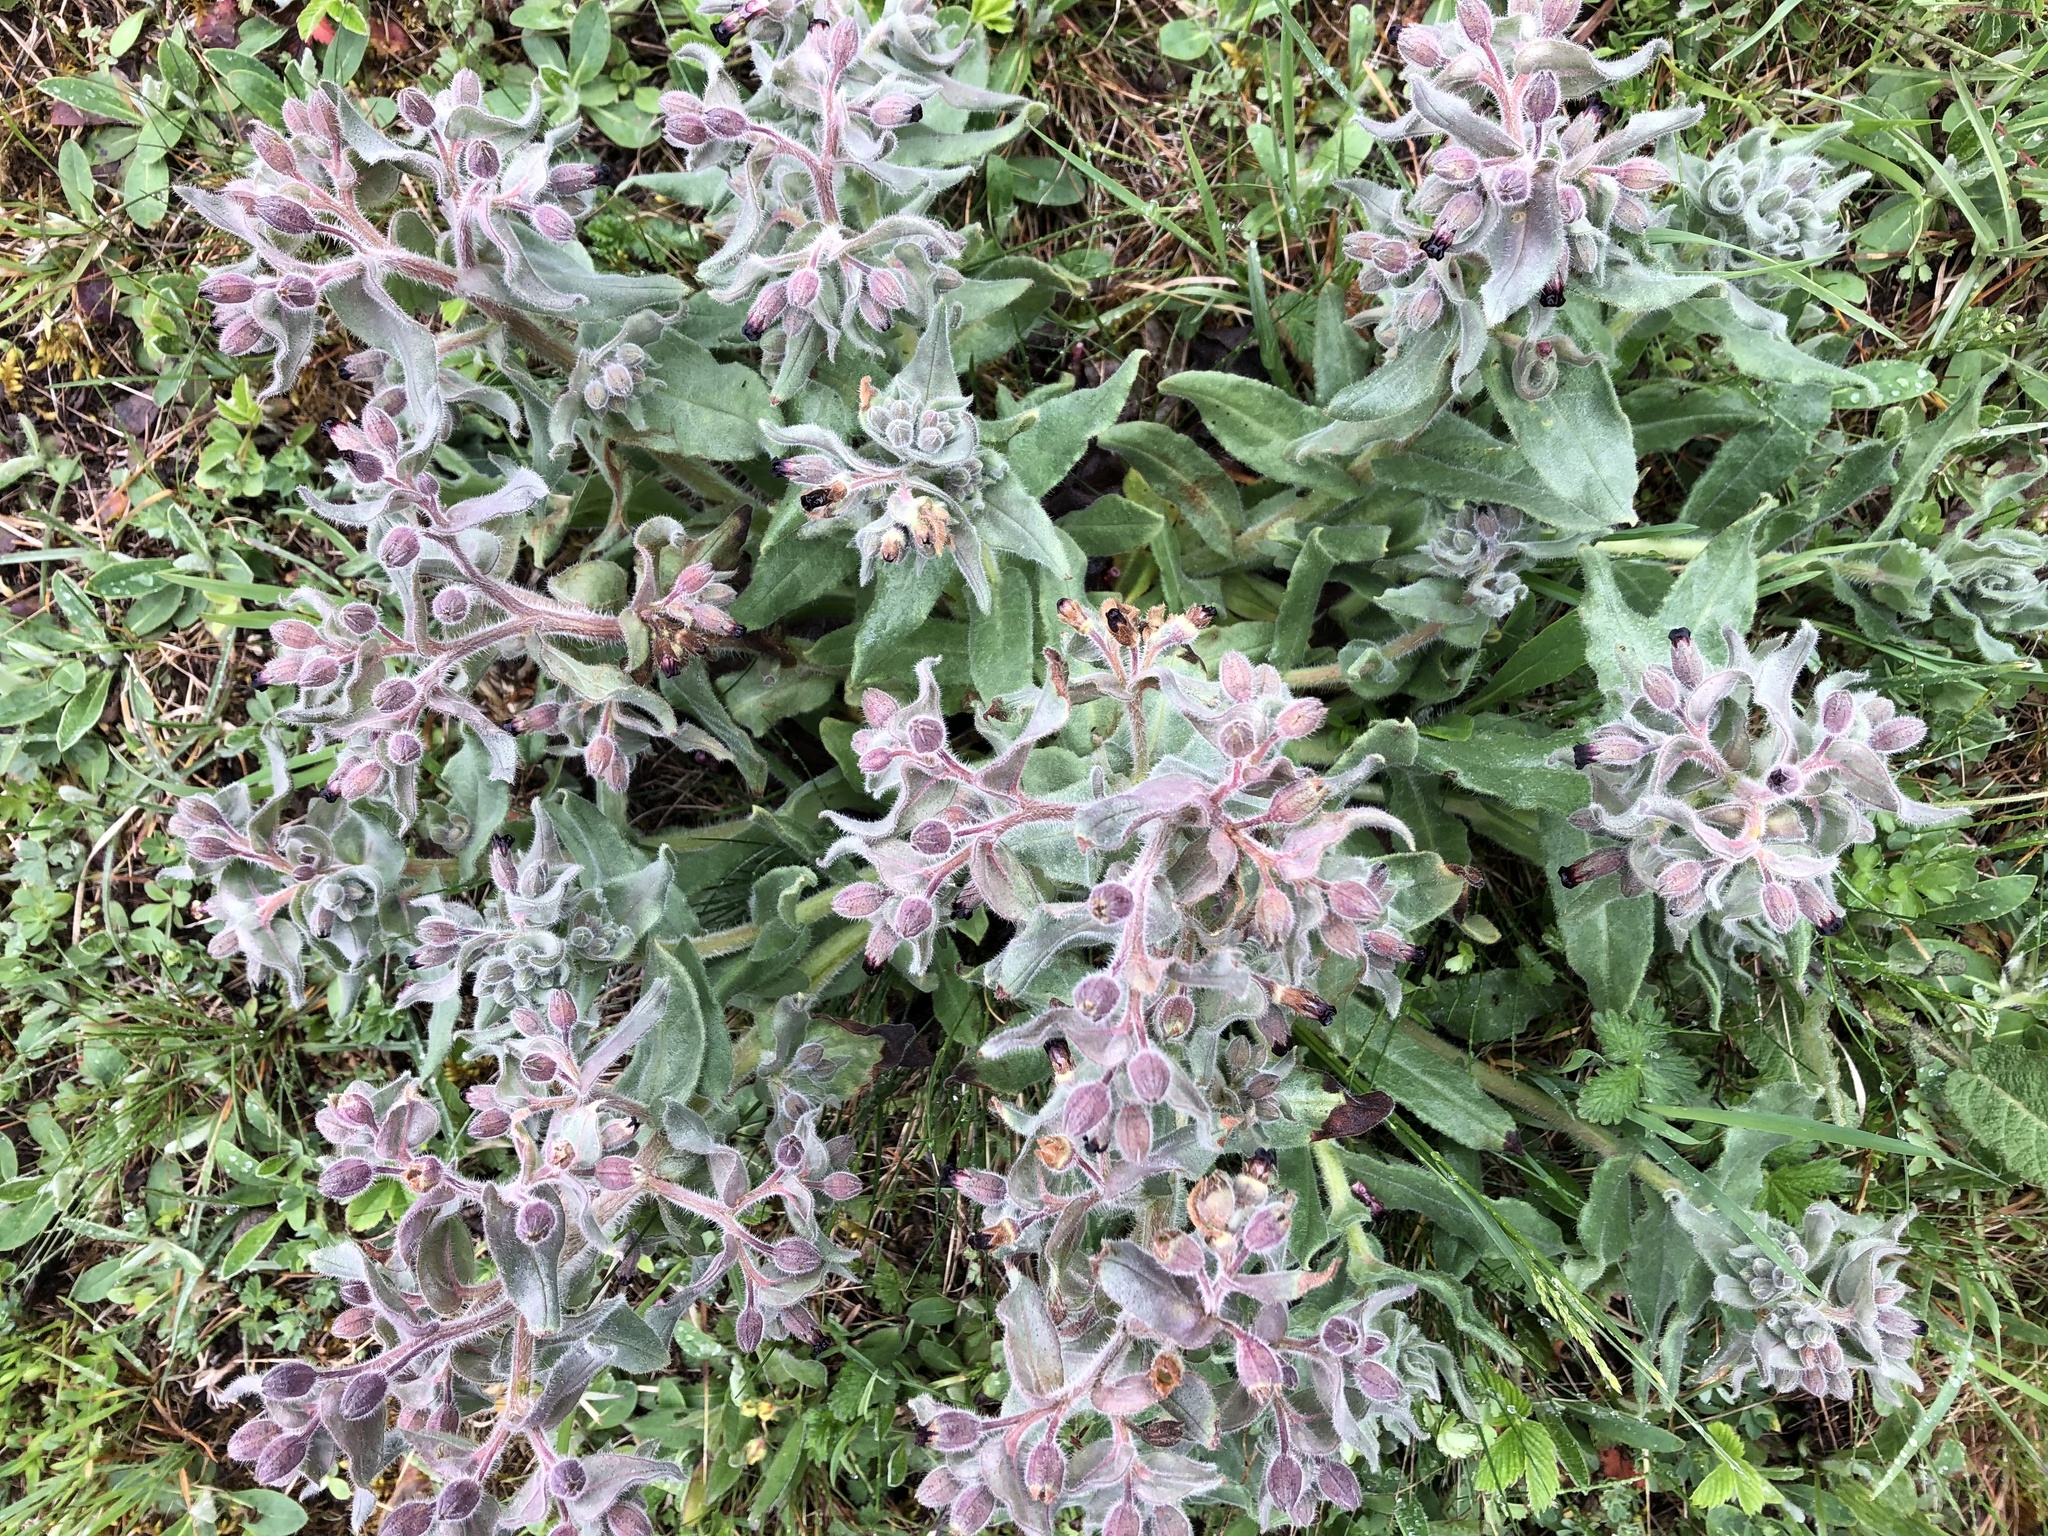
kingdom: Plantae
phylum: Tracheophyta
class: Magnoliopsida
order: Boraginales
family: Boraginaceae
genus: Nonea
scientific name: Nonea pulla
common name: Brown nonea
